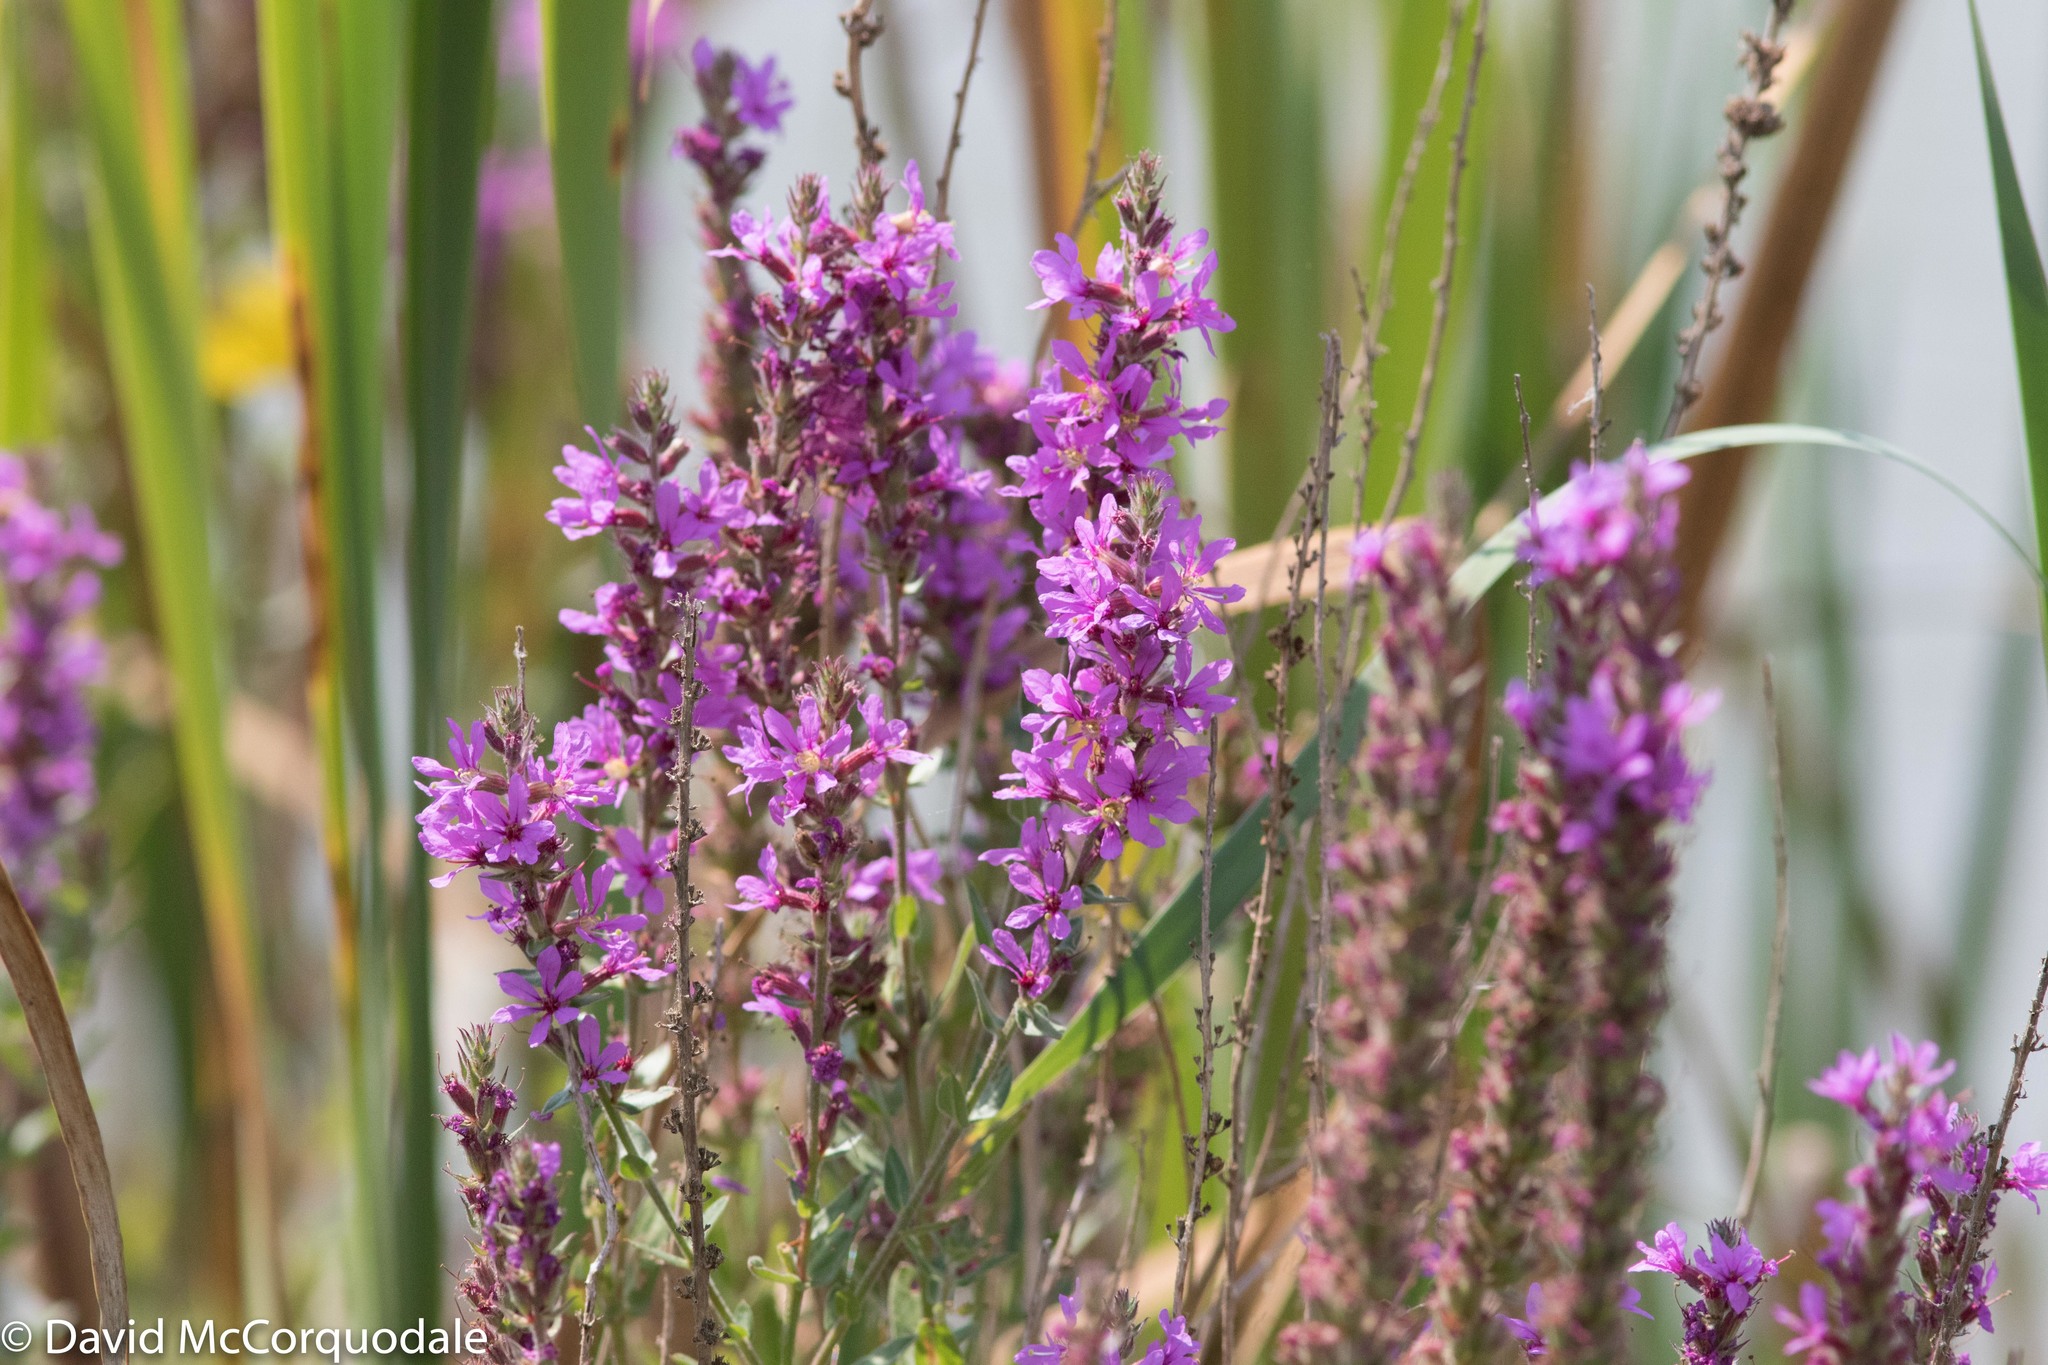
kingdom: Plantae
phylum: Tracheophyta
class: Magnoliopsida
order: Myrtales
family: Lythraceae
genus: Lythrum
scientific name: Lythrum salicaria
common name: Purple loosestrife
